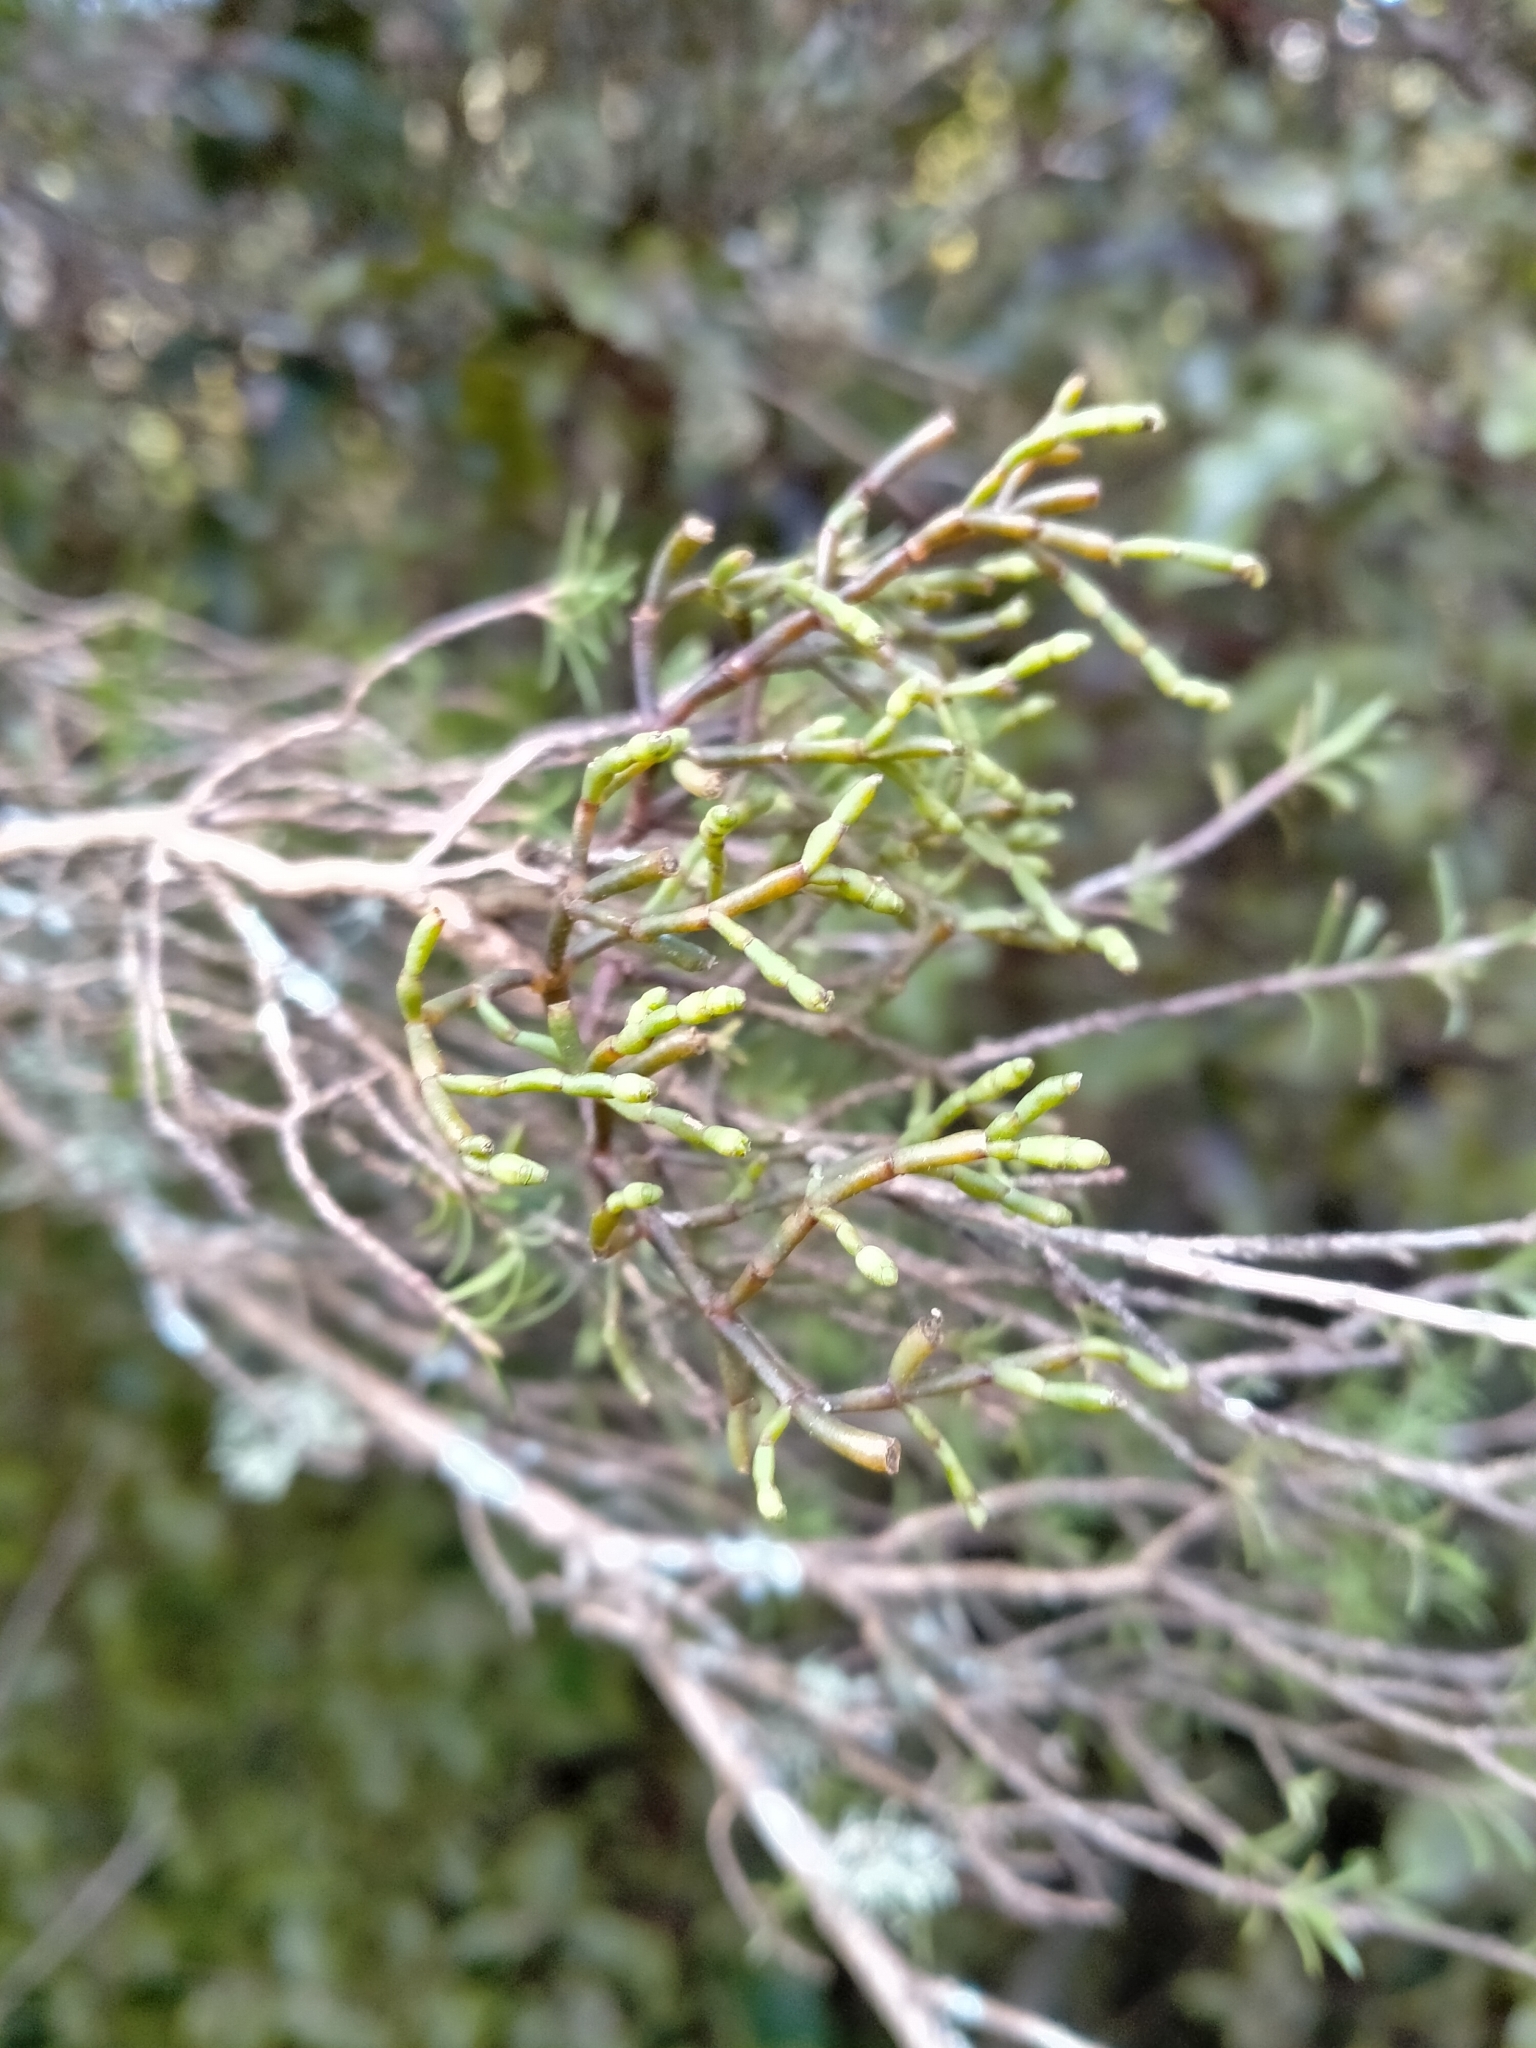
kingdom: Plantae
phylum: Tracheophyta
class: Magnoliopsida
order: Santalales
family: Viscaceae
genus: Korthalsella
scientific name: Korthalsella salicornioides
